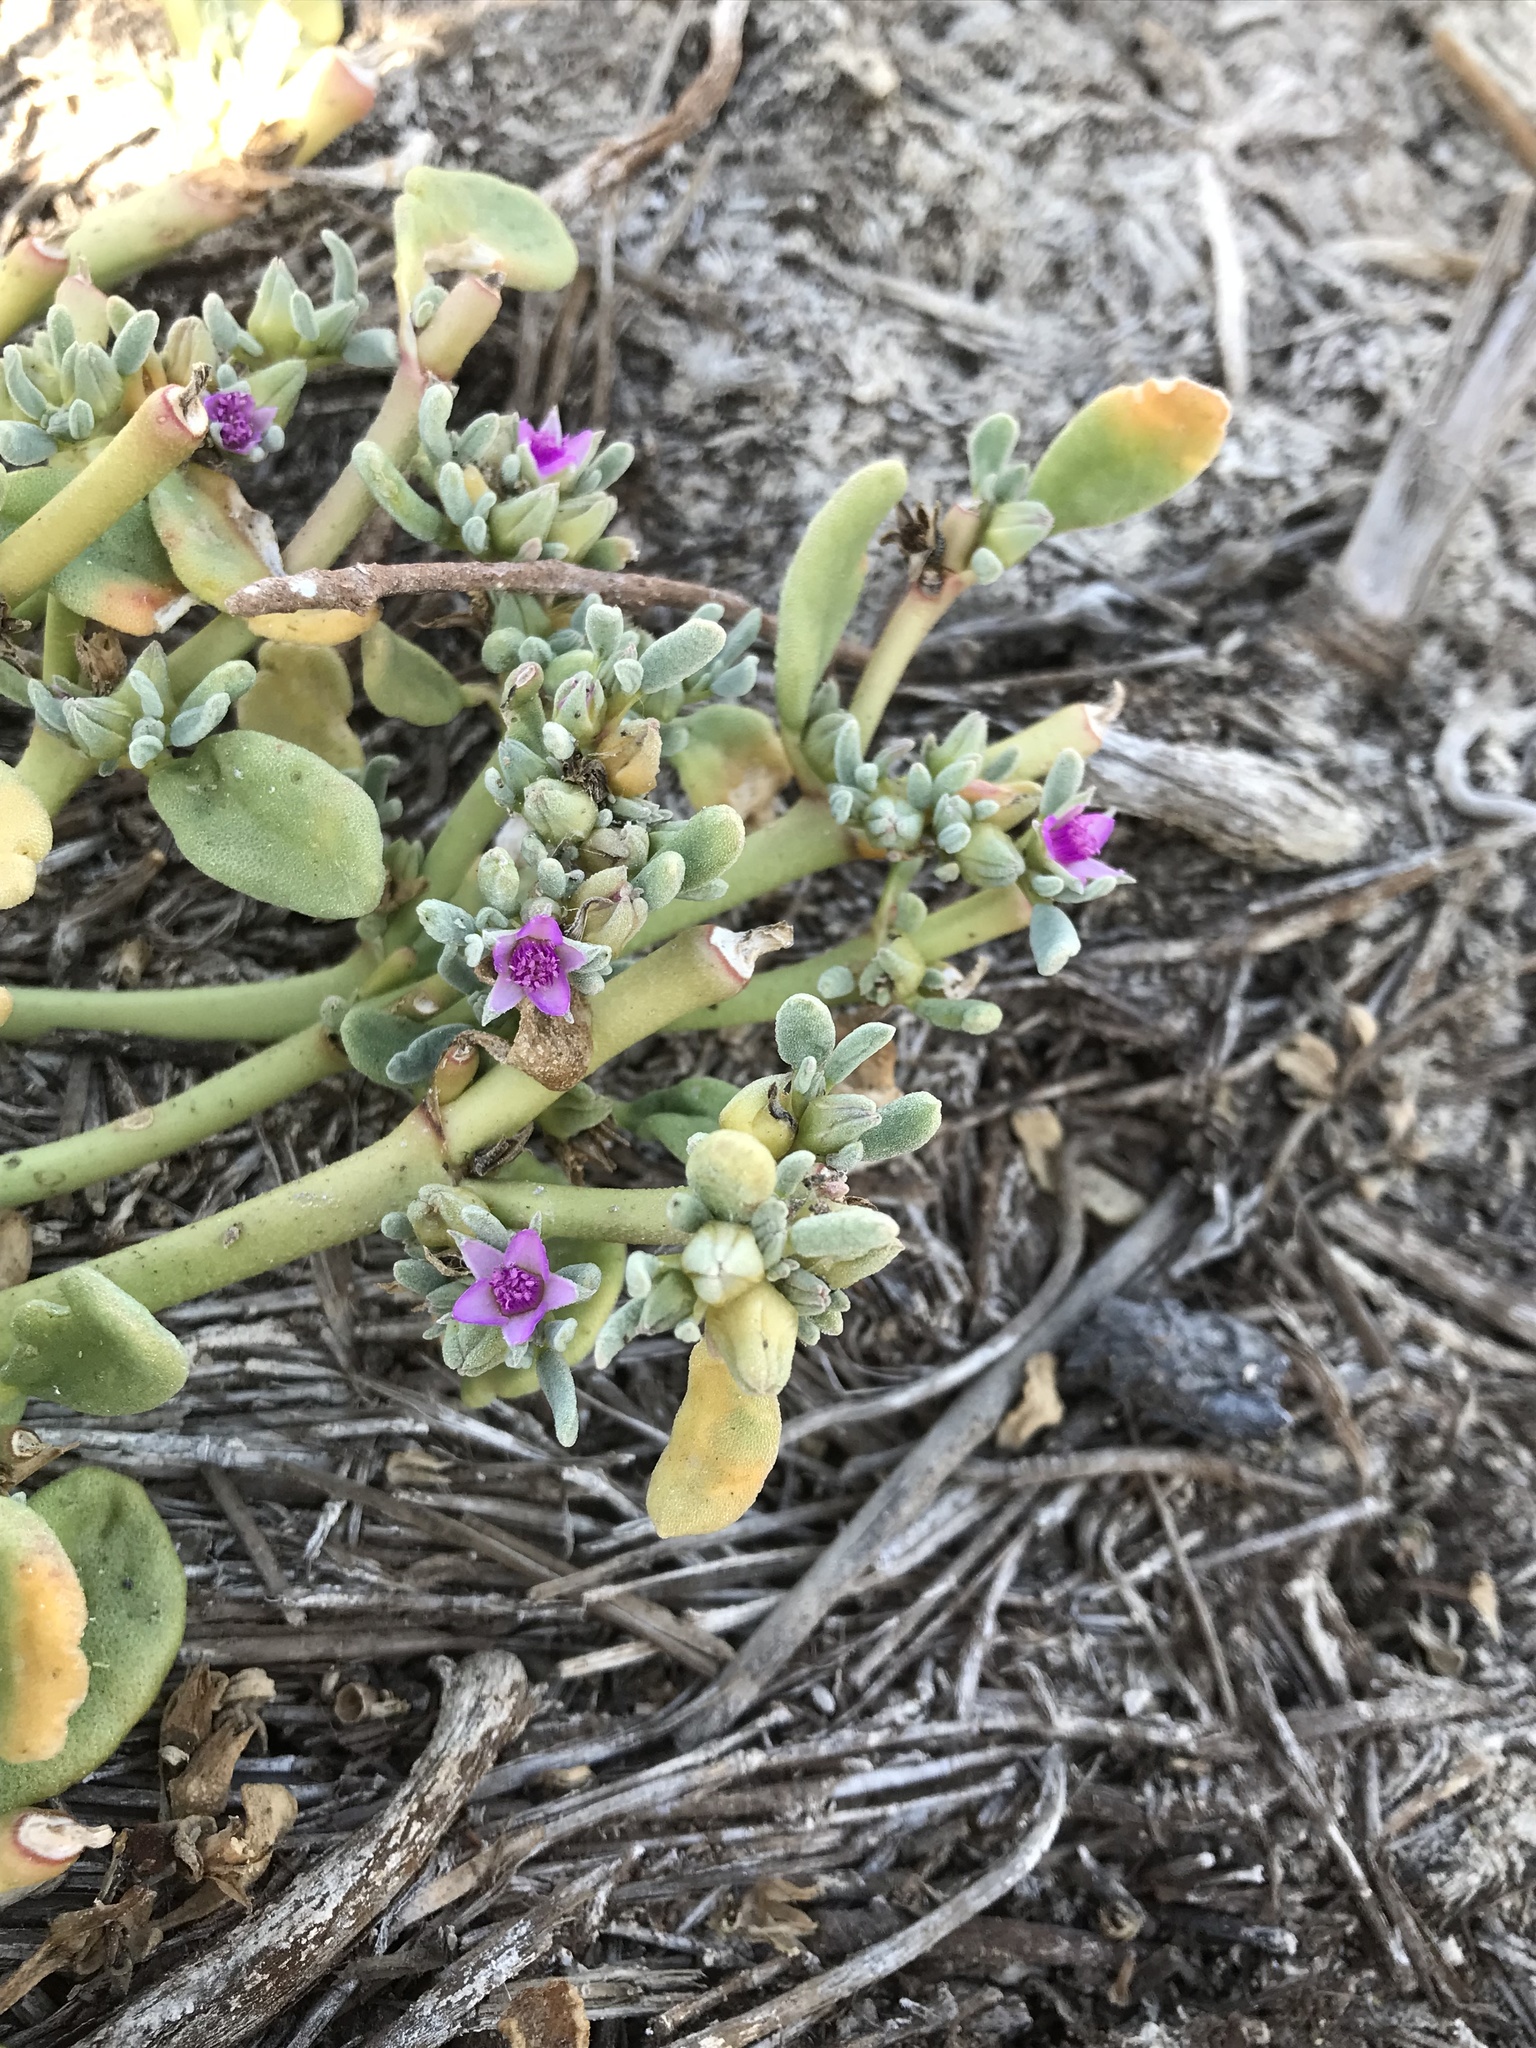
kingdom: Plantae
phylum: Tracheophyta
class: Magnoliopsida
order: Caryophyllales
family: Aizoaceae
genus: Sesuvium
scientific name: Sesuvium revolutifolium
